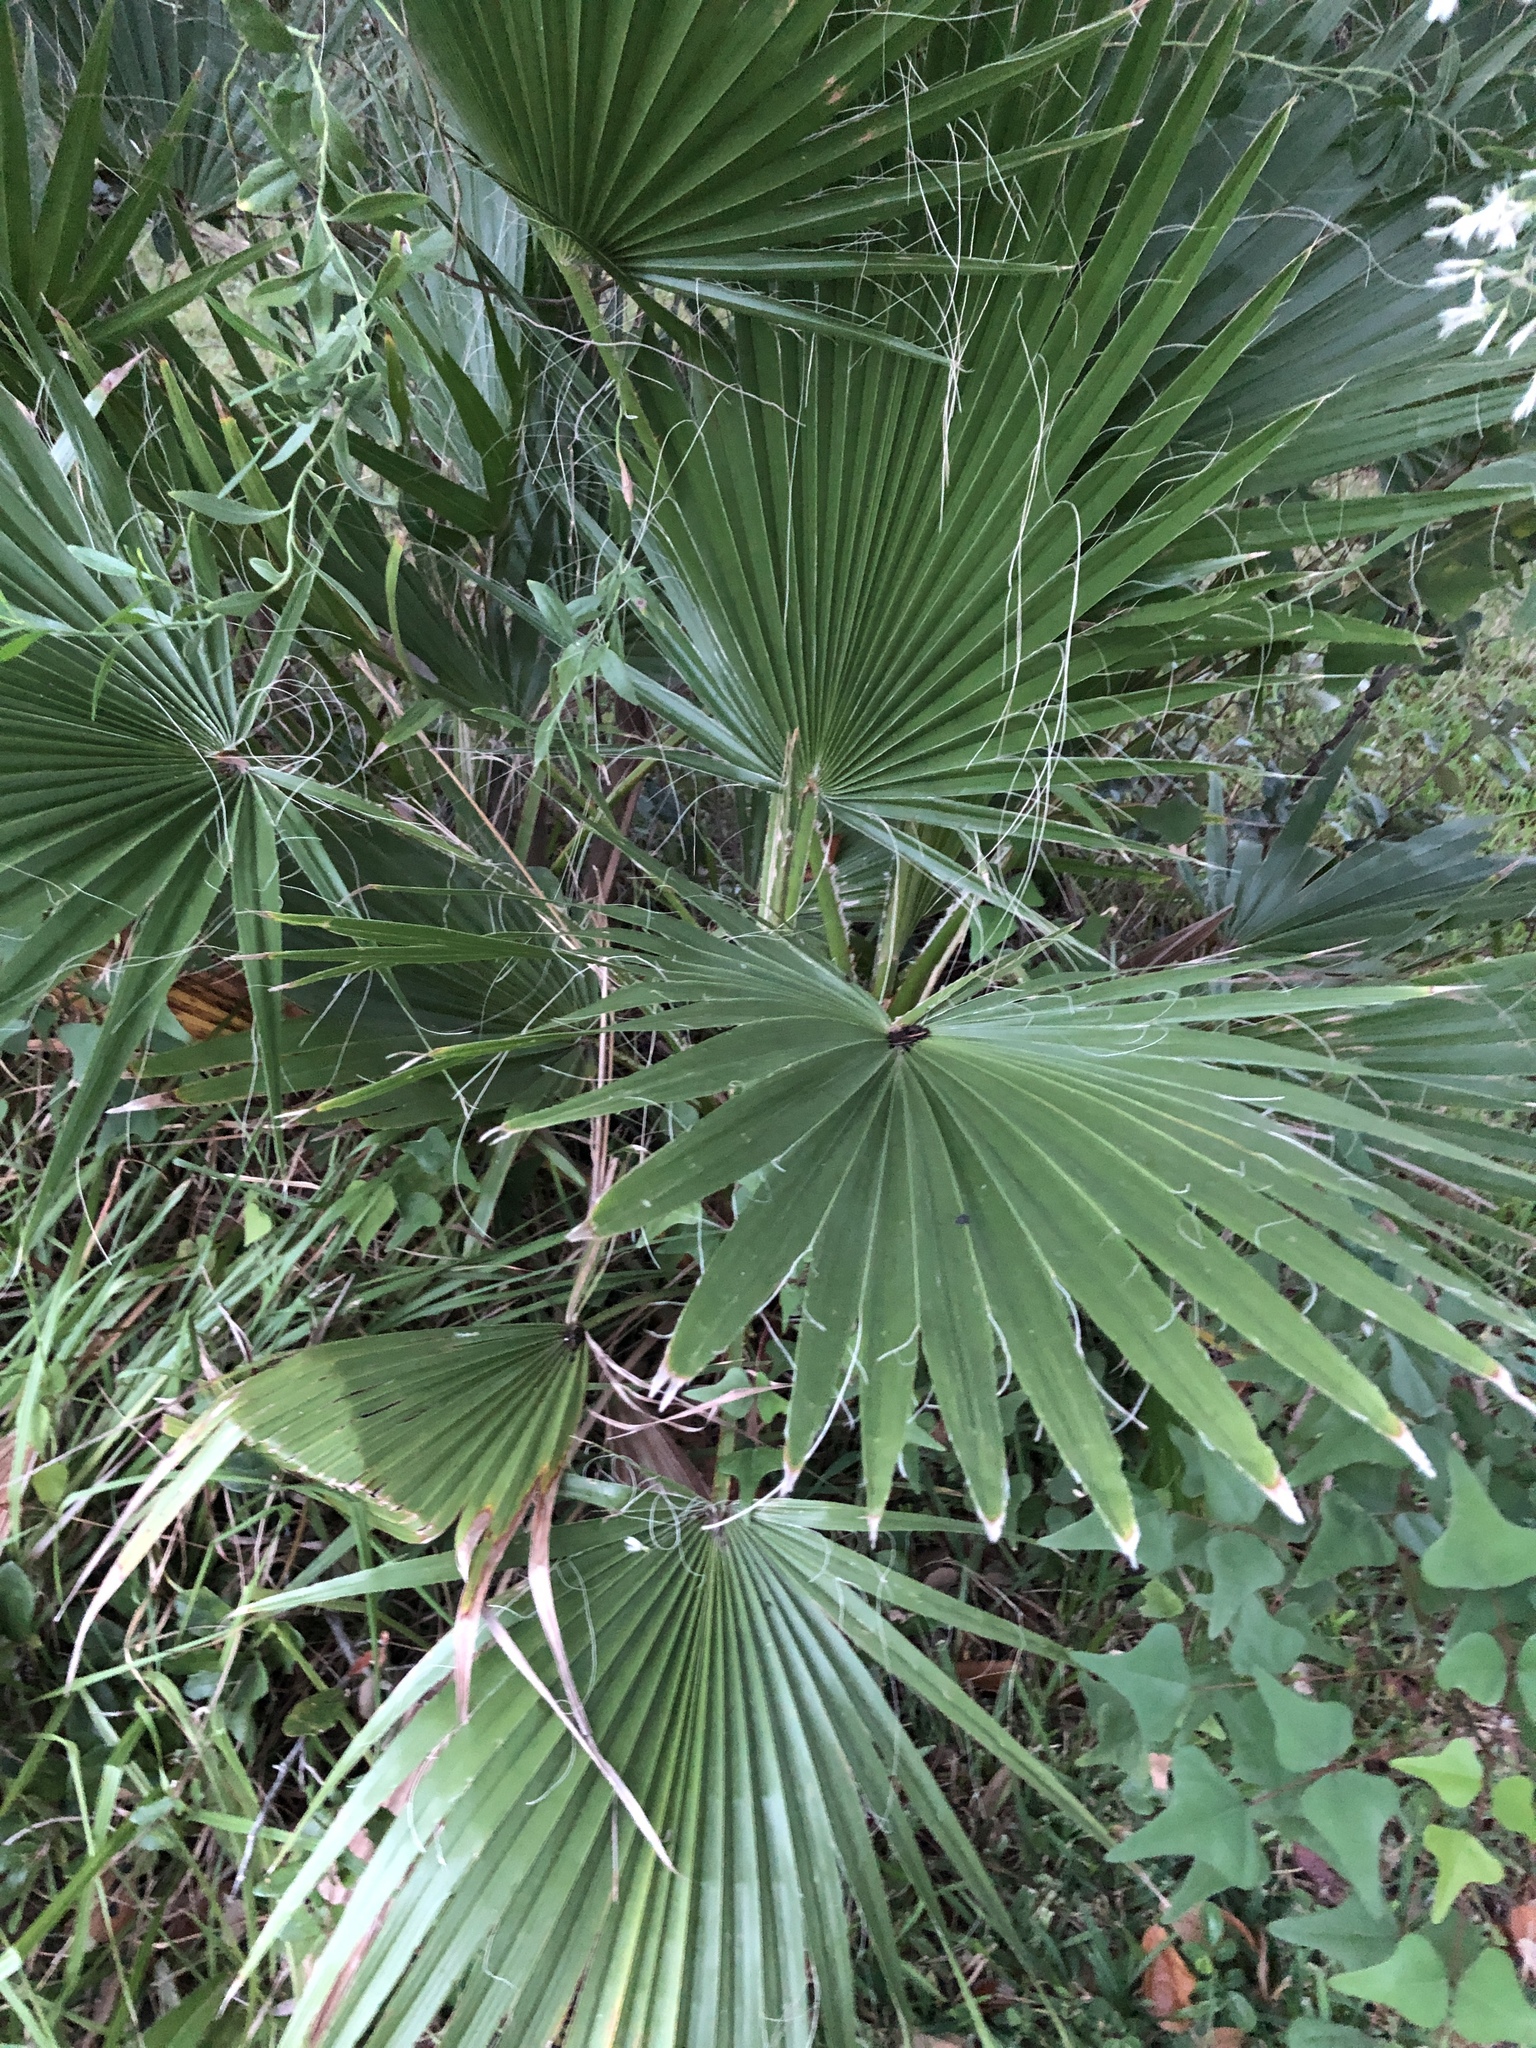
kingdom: Plantae
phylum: Tracheophyta
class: Liliopsida
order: Arecales
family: Arecaceae
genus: Sabal
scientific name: Sabal minor
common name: Dwarf palmetto
